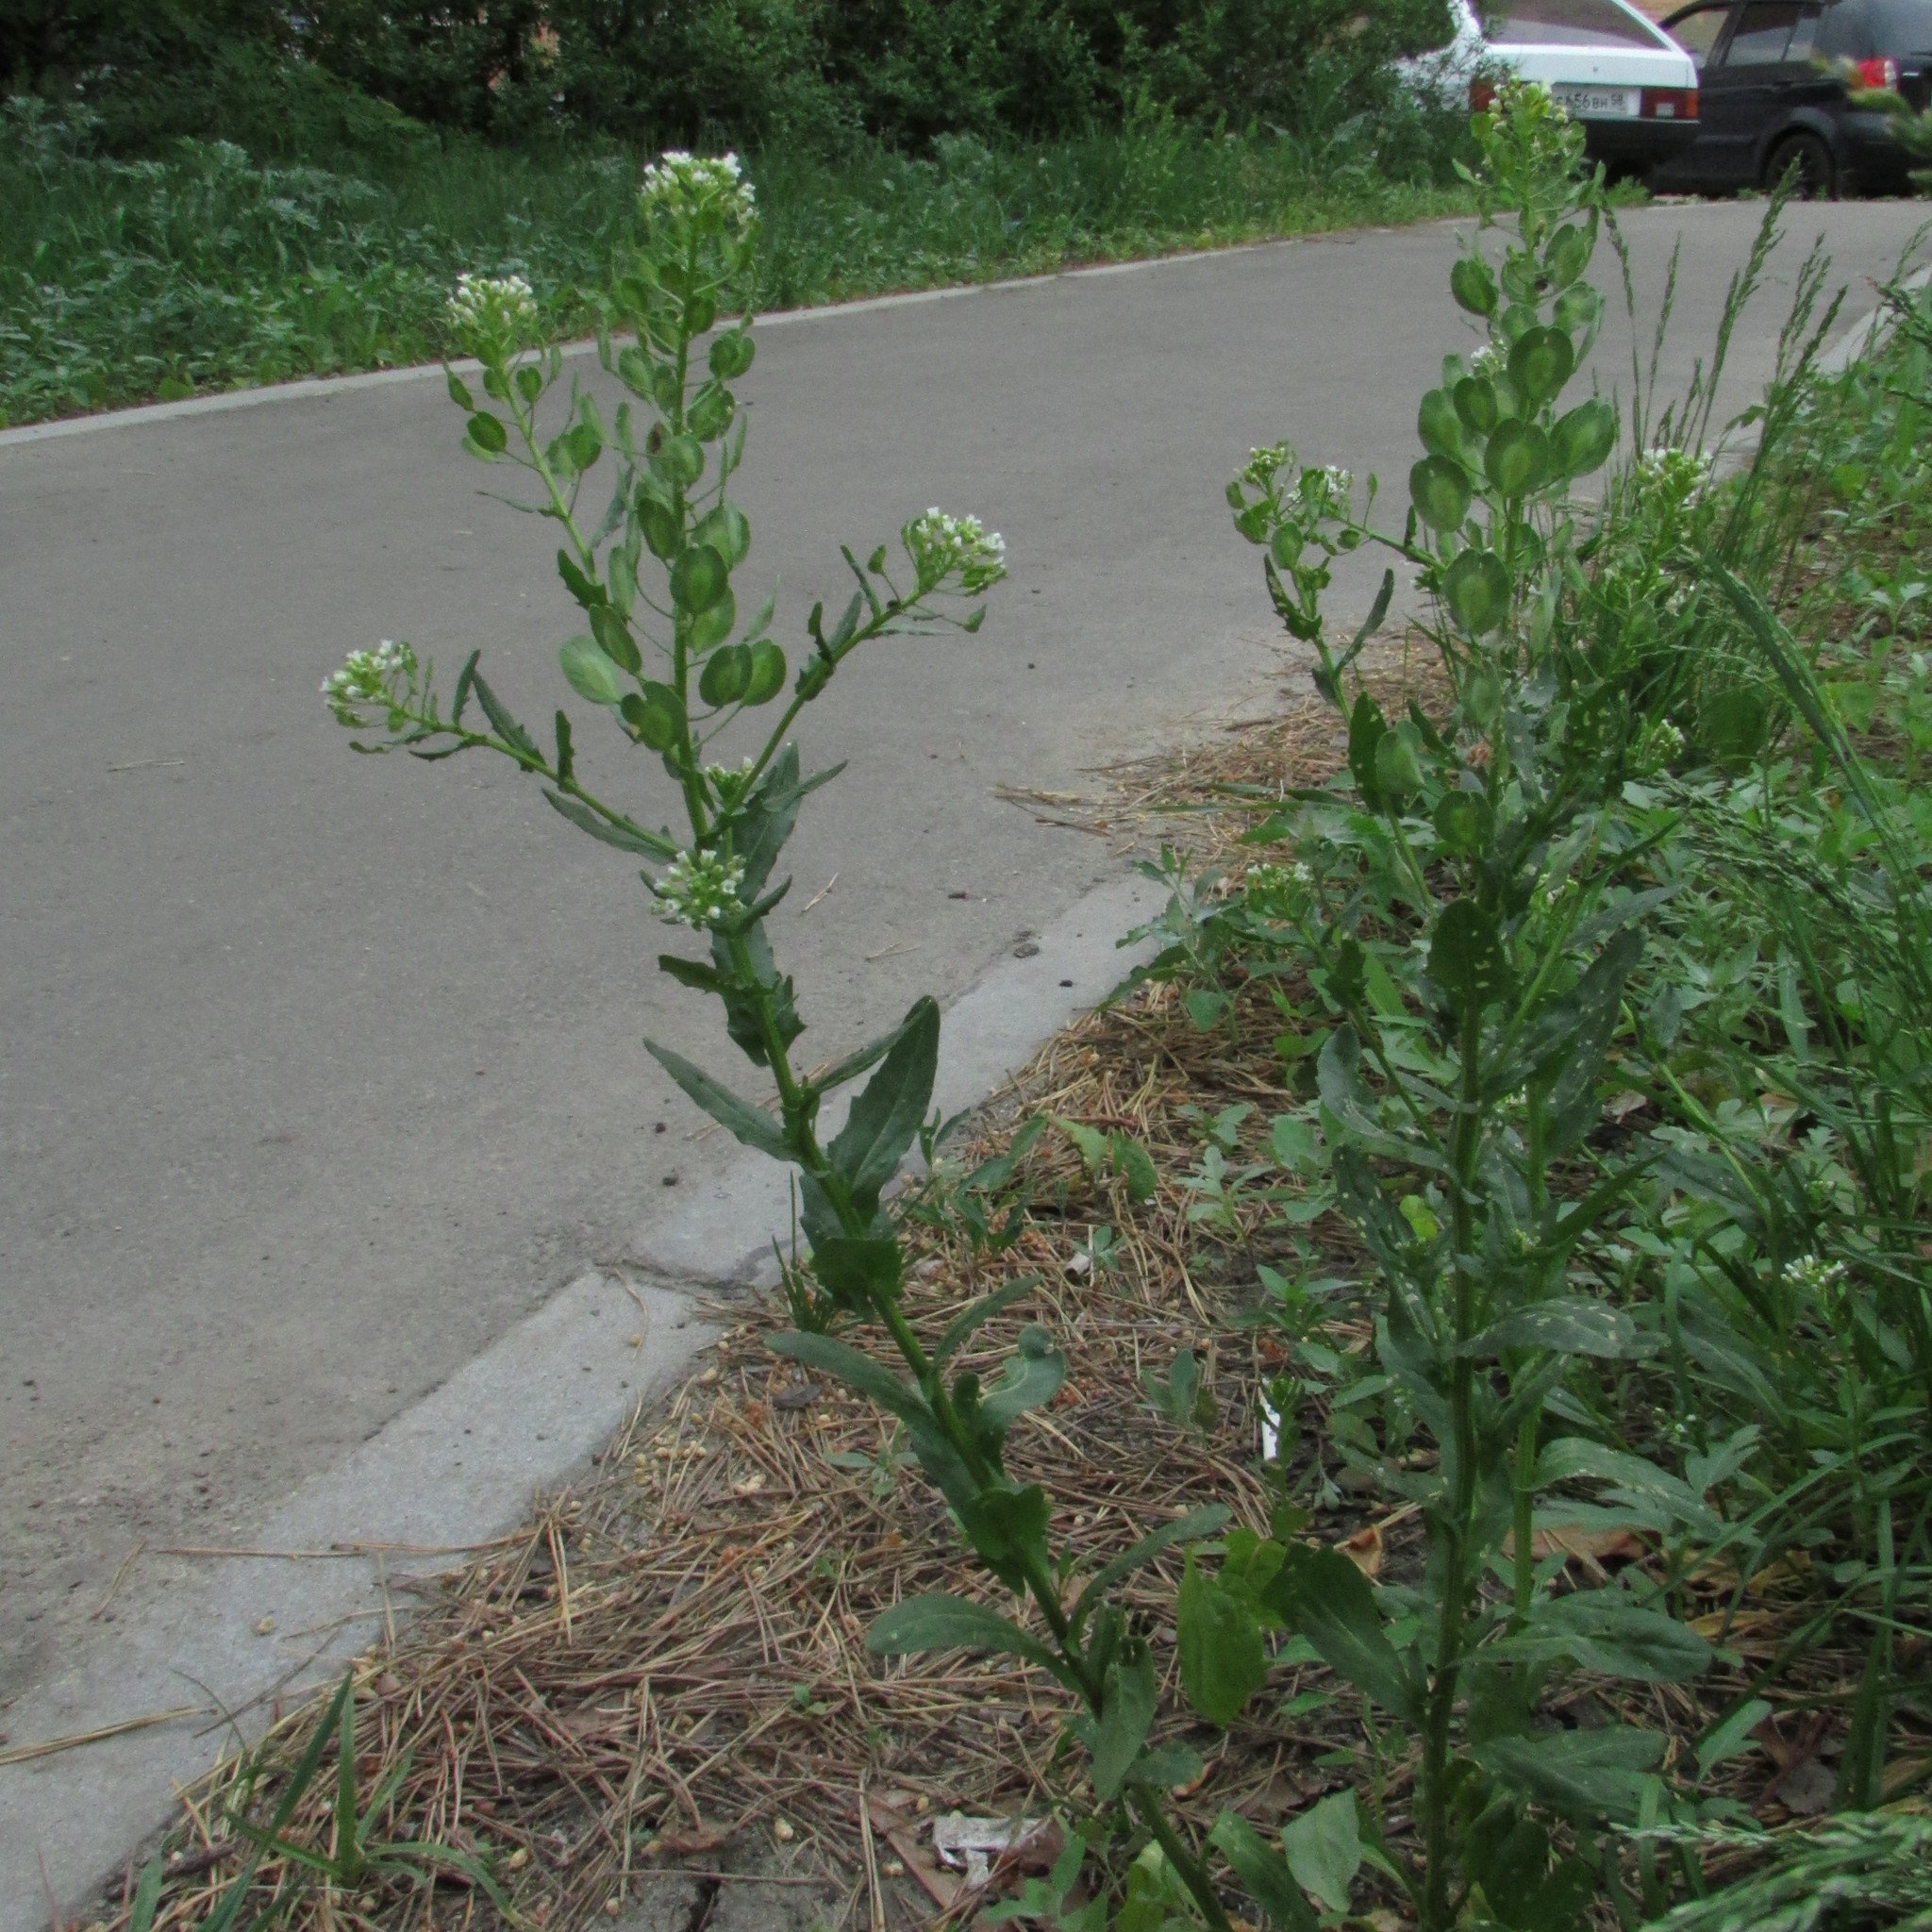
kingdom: Plantae
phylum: Tracheophyta
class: Magnoliopsida
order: Brassicales
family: Brassicaceae
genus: Thlaspi
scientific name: Thlaspi arvense
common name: Field pennycress
